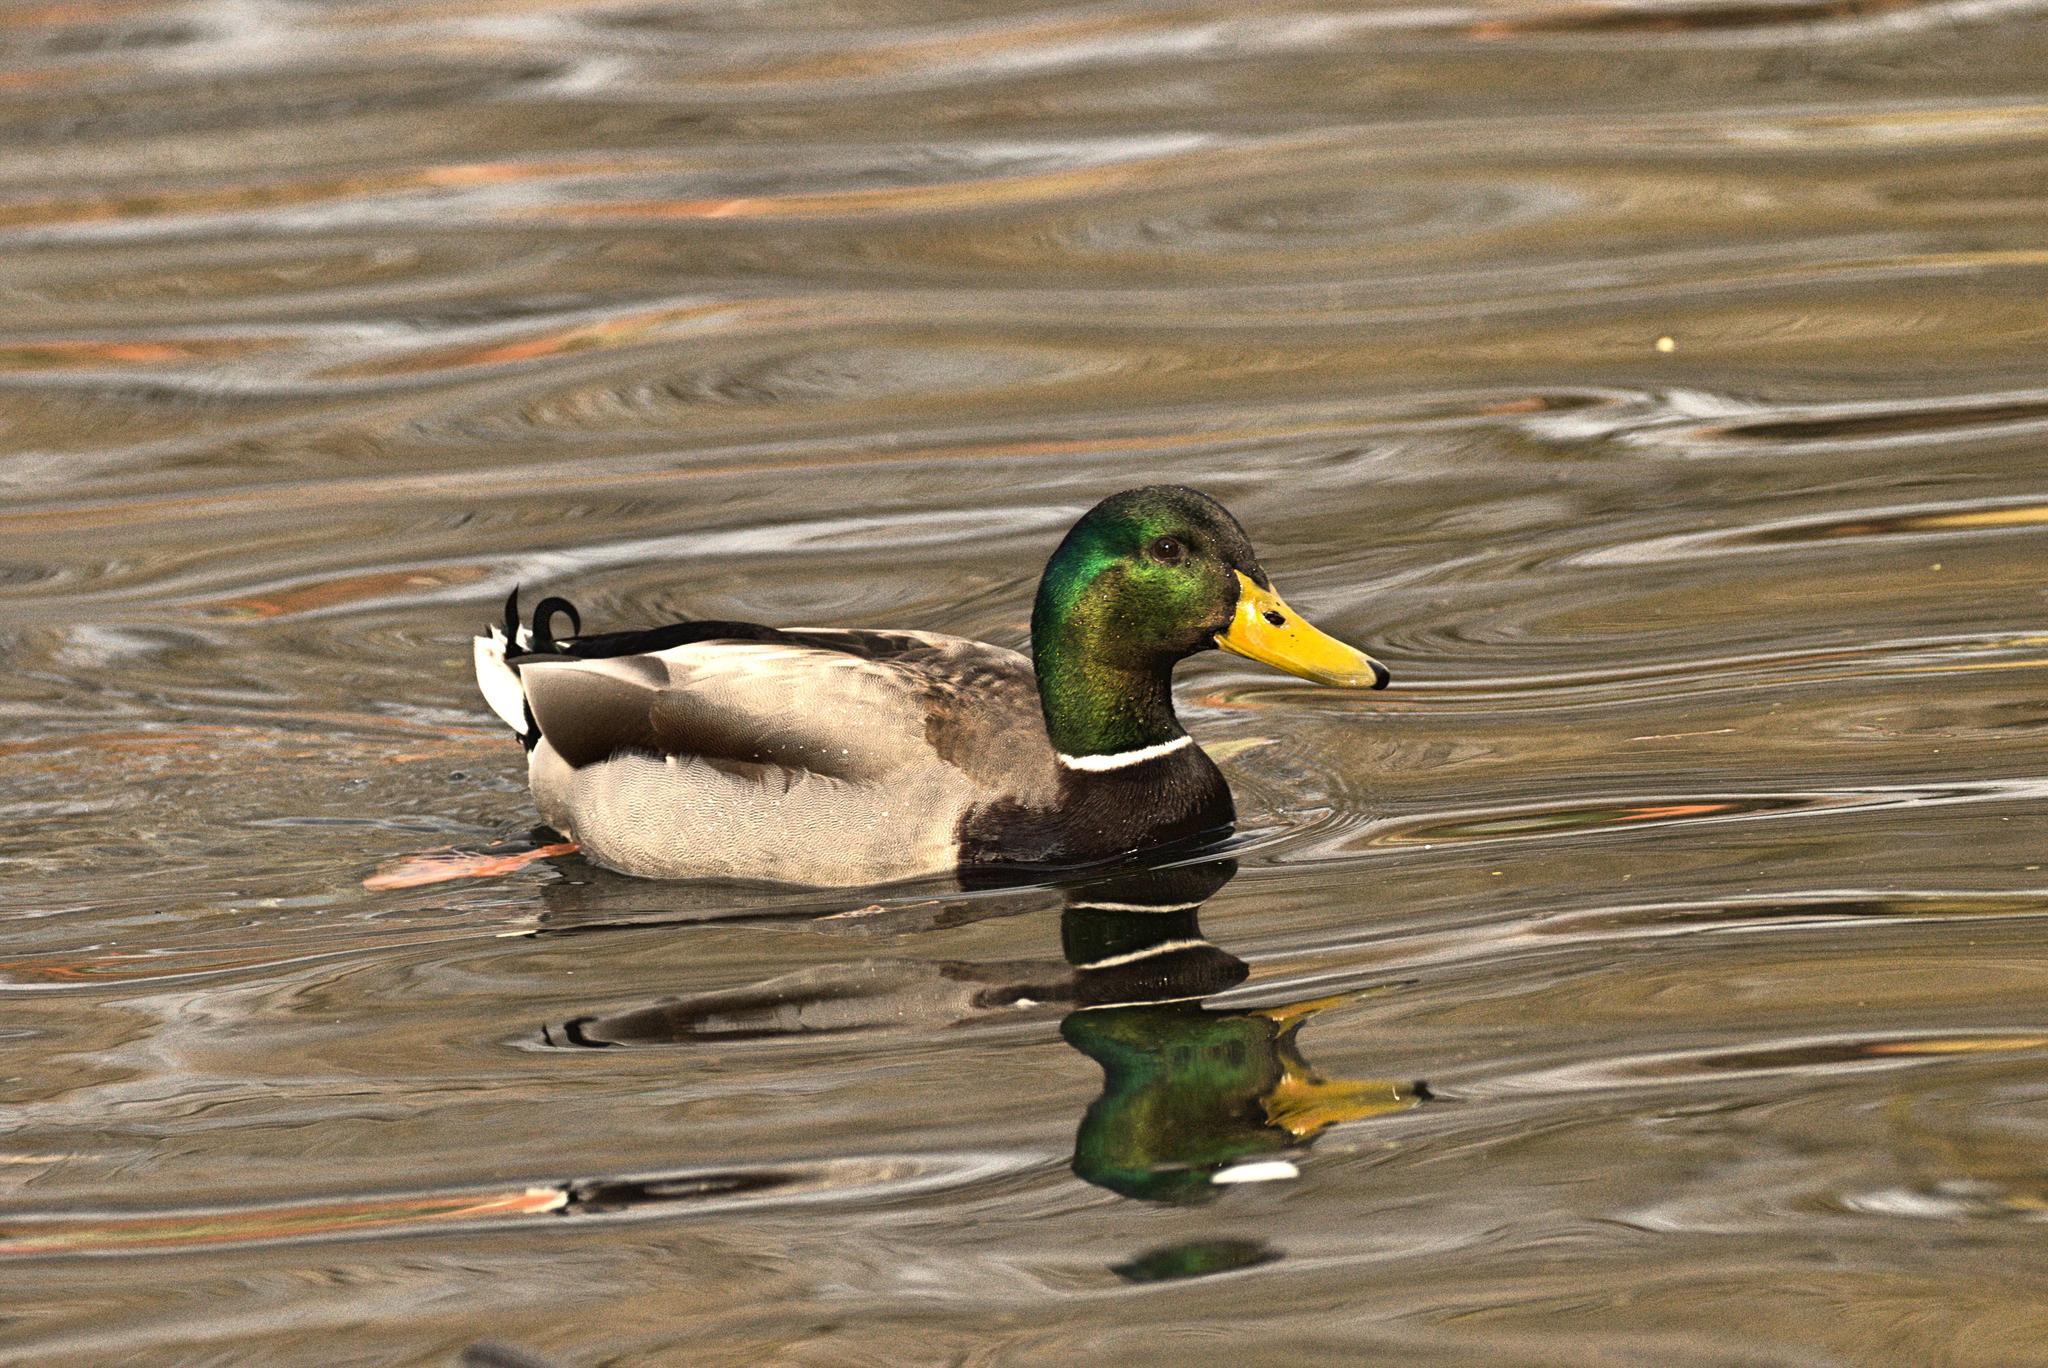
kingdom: Animalia
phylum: Chordata
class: Aves
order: Anseriformes
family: Anatidae
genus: Anas
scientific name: Anas platyrhynchos
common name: Mallard
